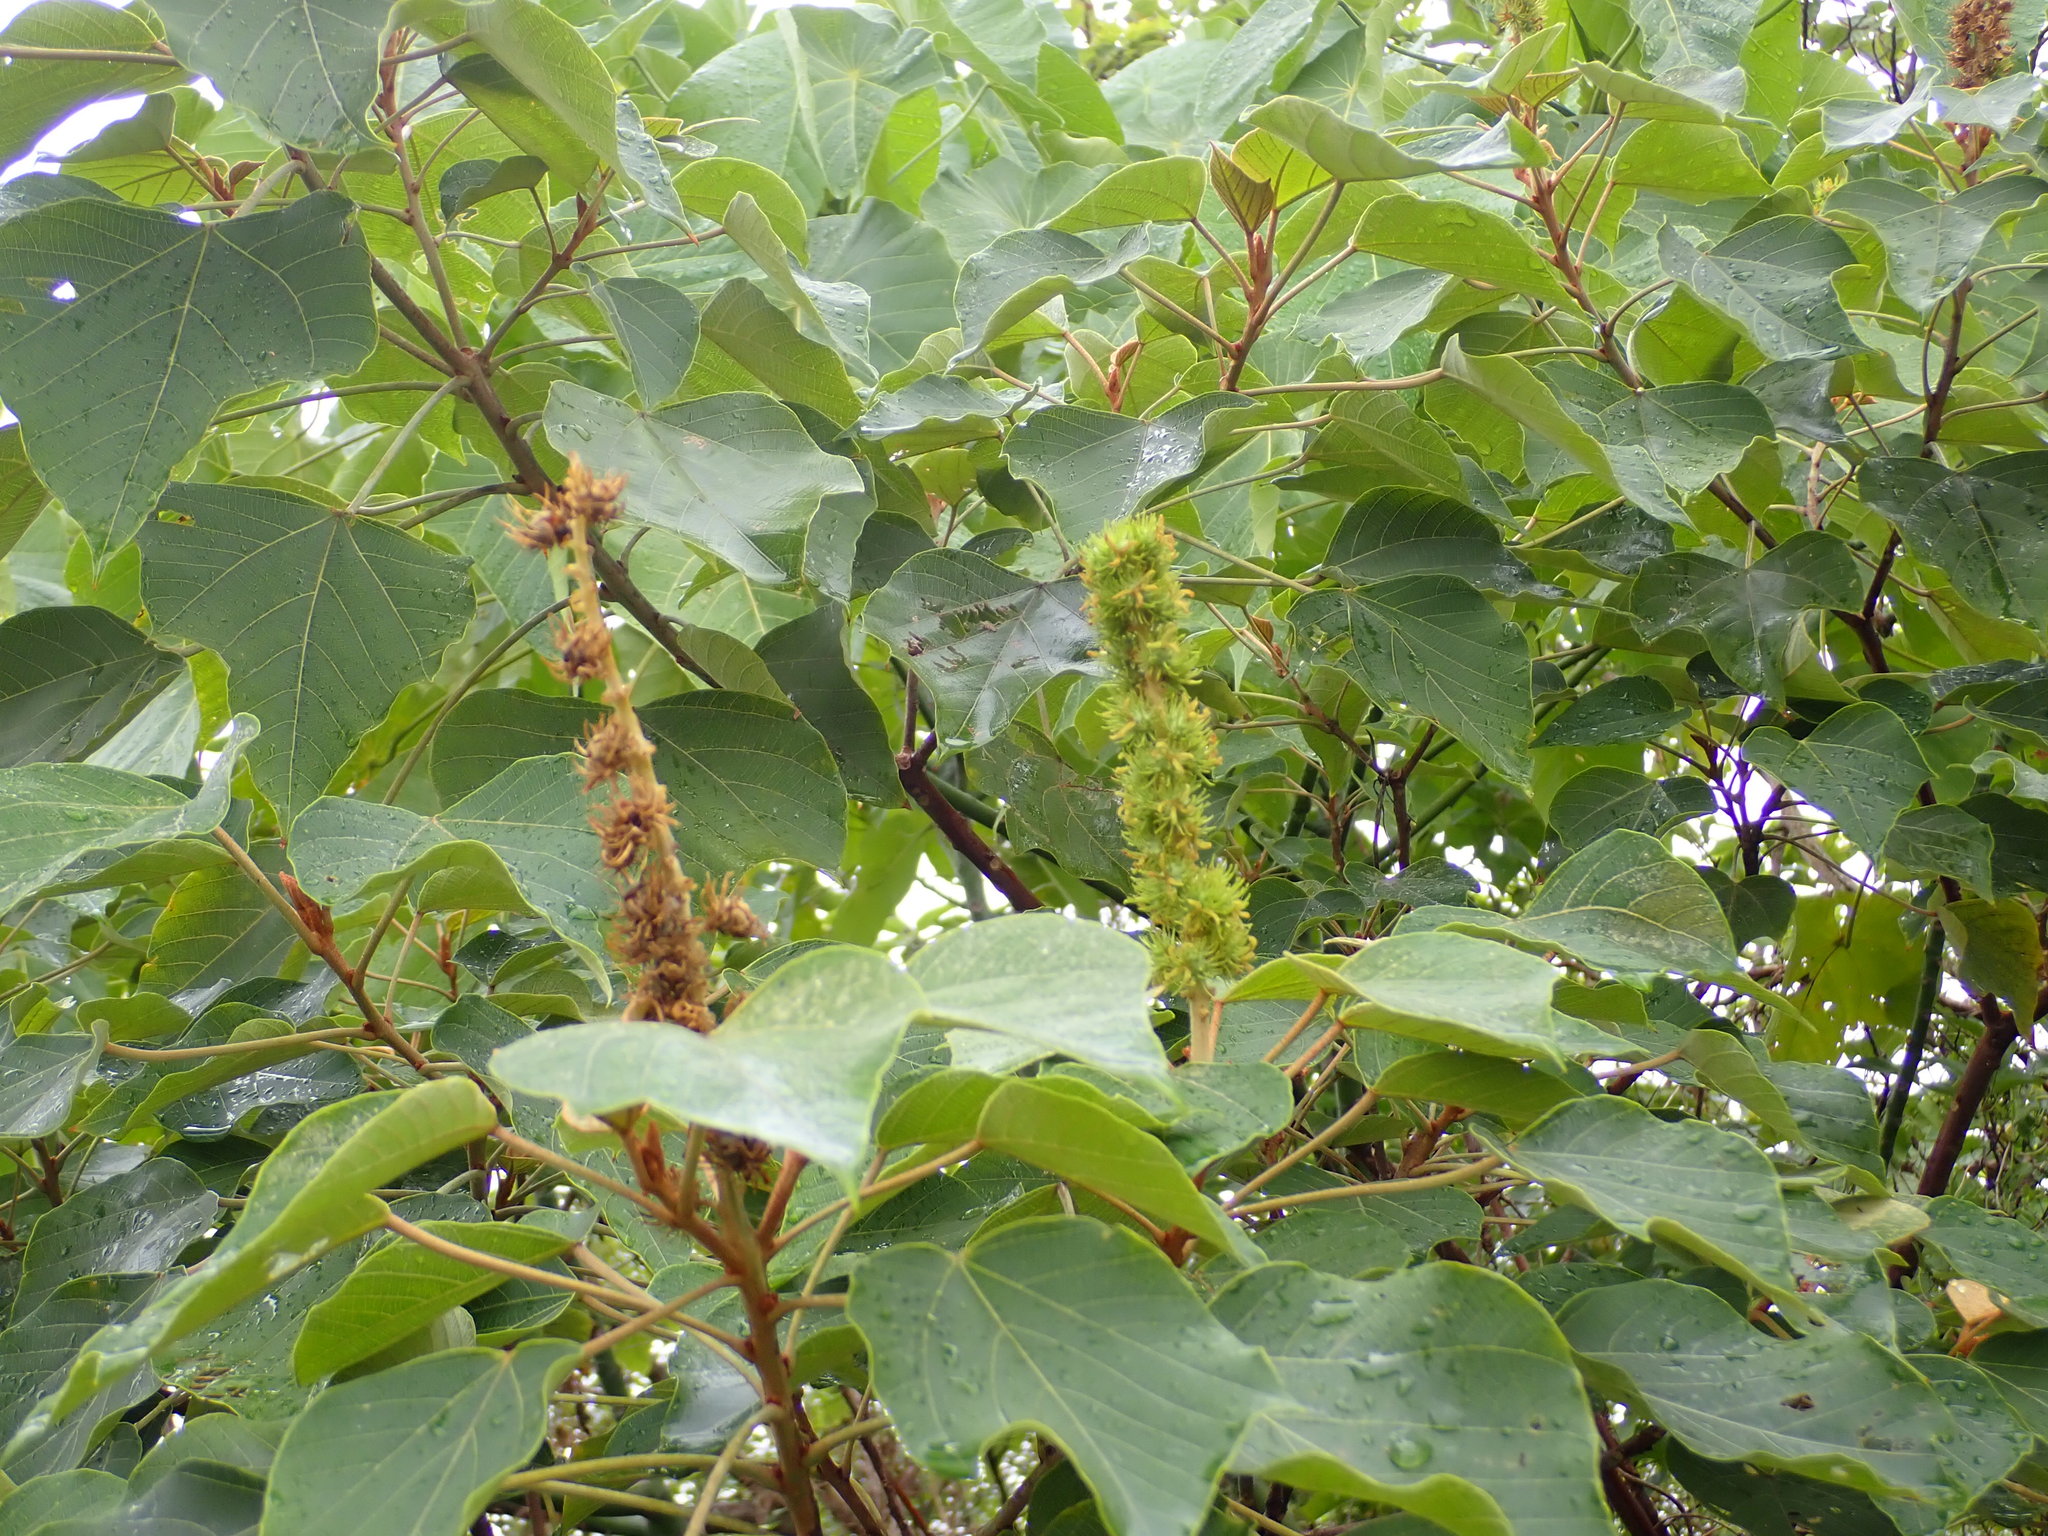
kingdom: Plantae
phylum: Tracheophyta
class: Magnoliopsida
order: Malpighiales
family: Euphorbiaceae
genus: Mallotus
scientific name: Mallotus japonicus
